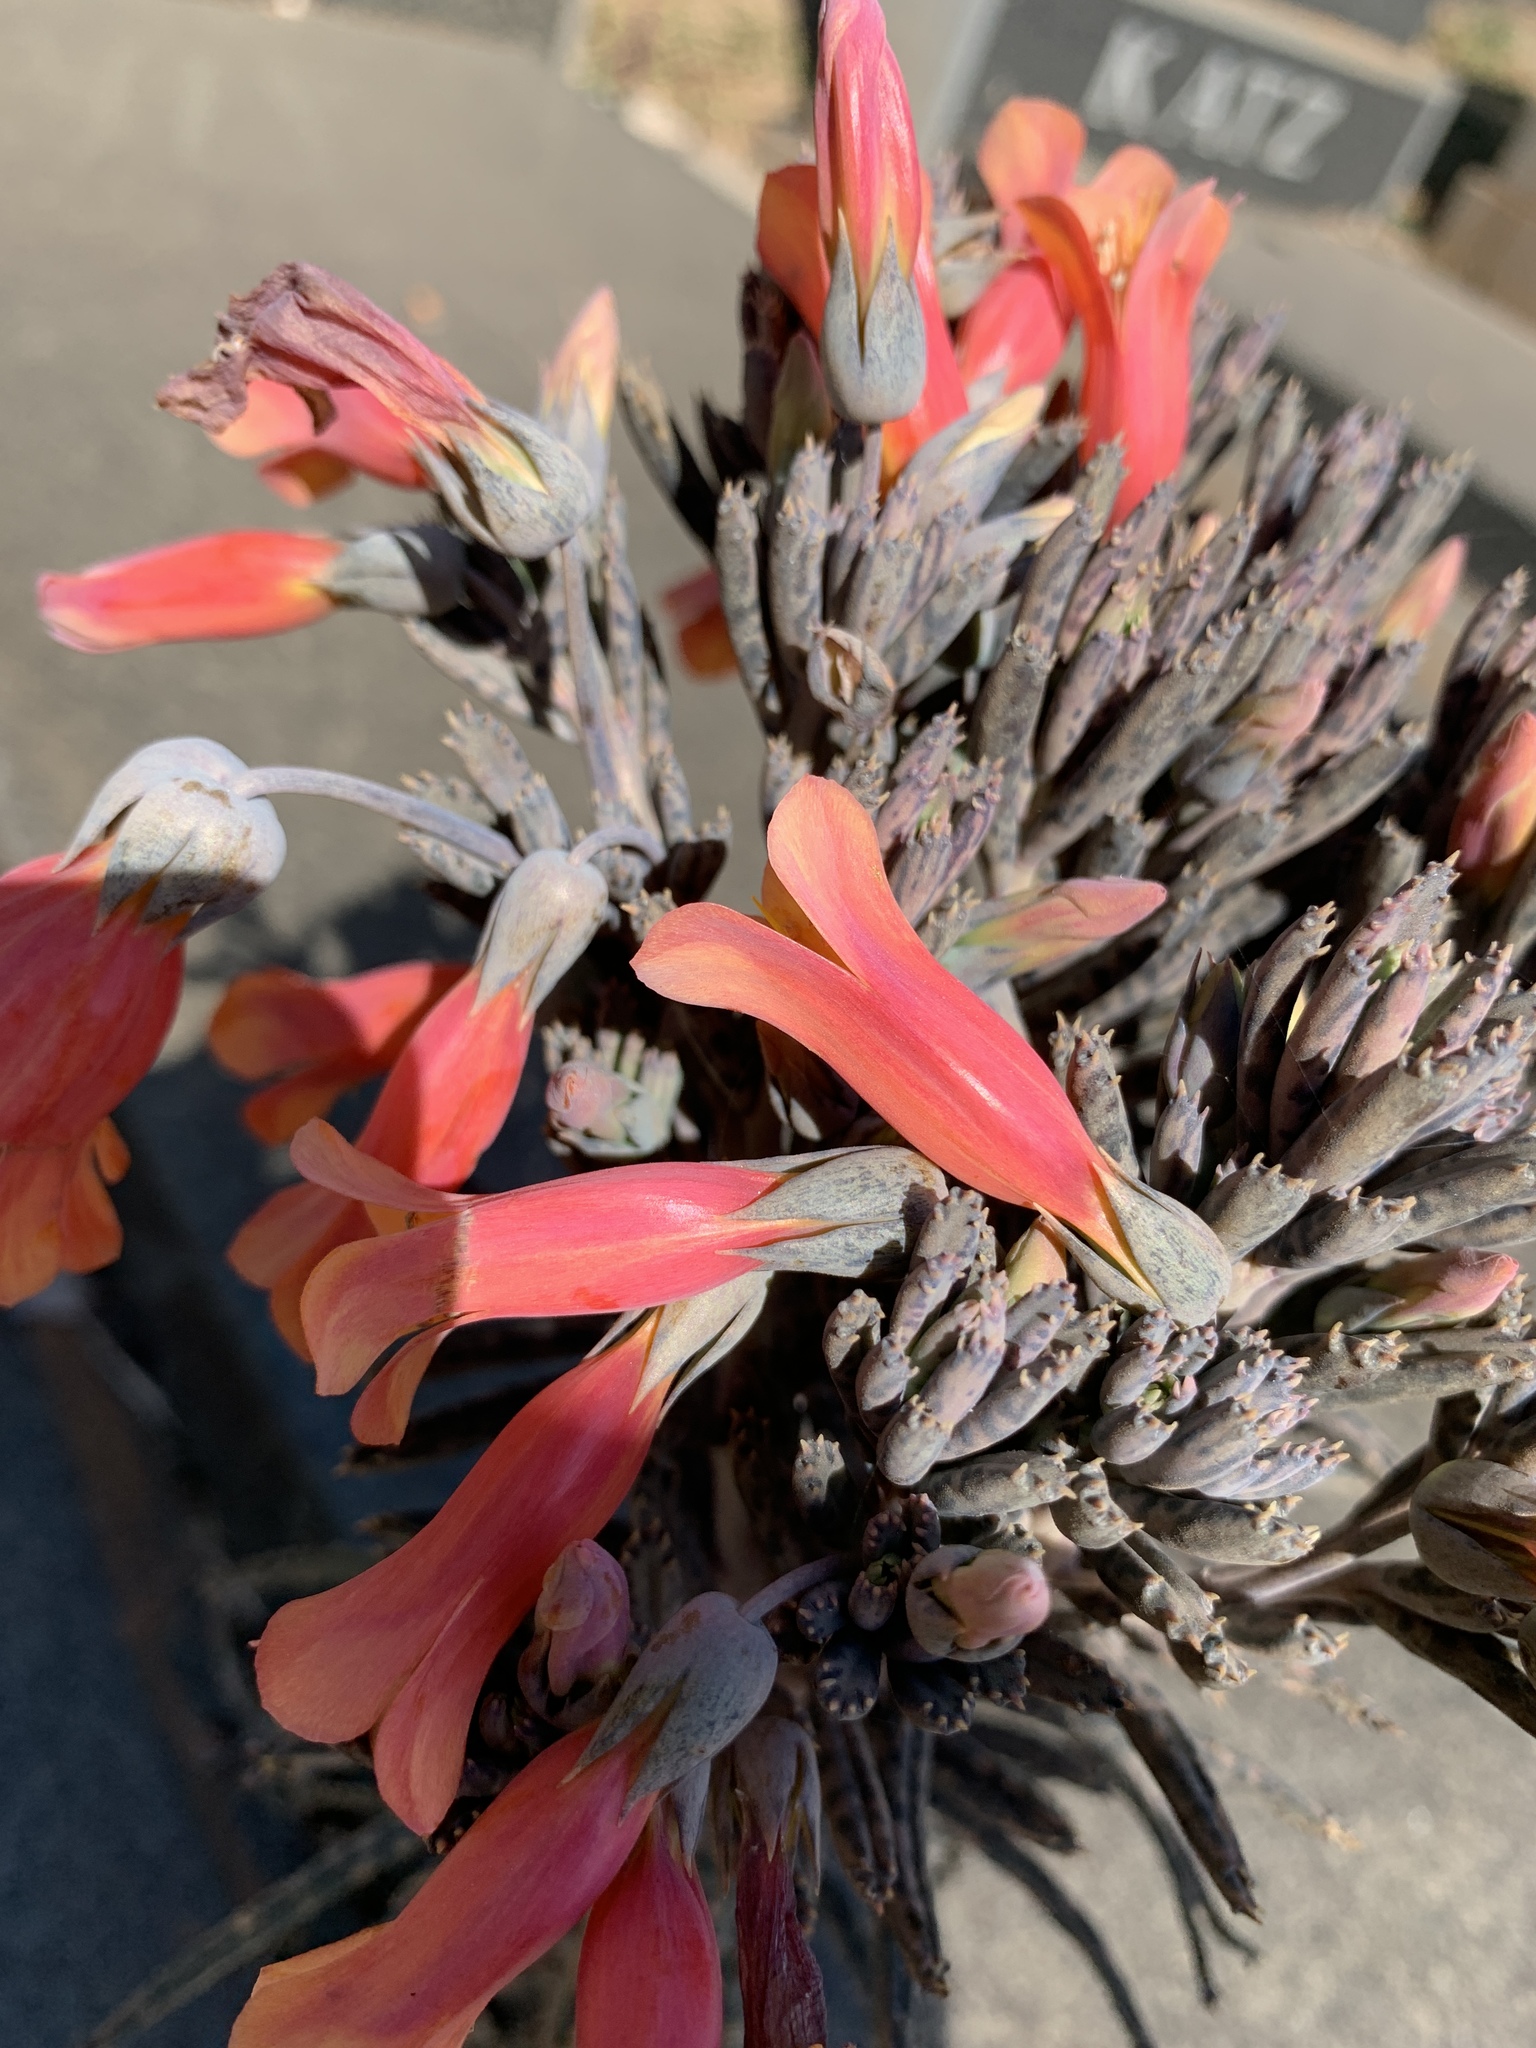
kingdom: Plantae
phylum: Tracheophyta
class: Magnoliopsida
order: Saxifragales
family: Crassulaceae
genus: Kalanchoe
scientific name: Kalanchoe delagoensis
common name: Chandelier plant
